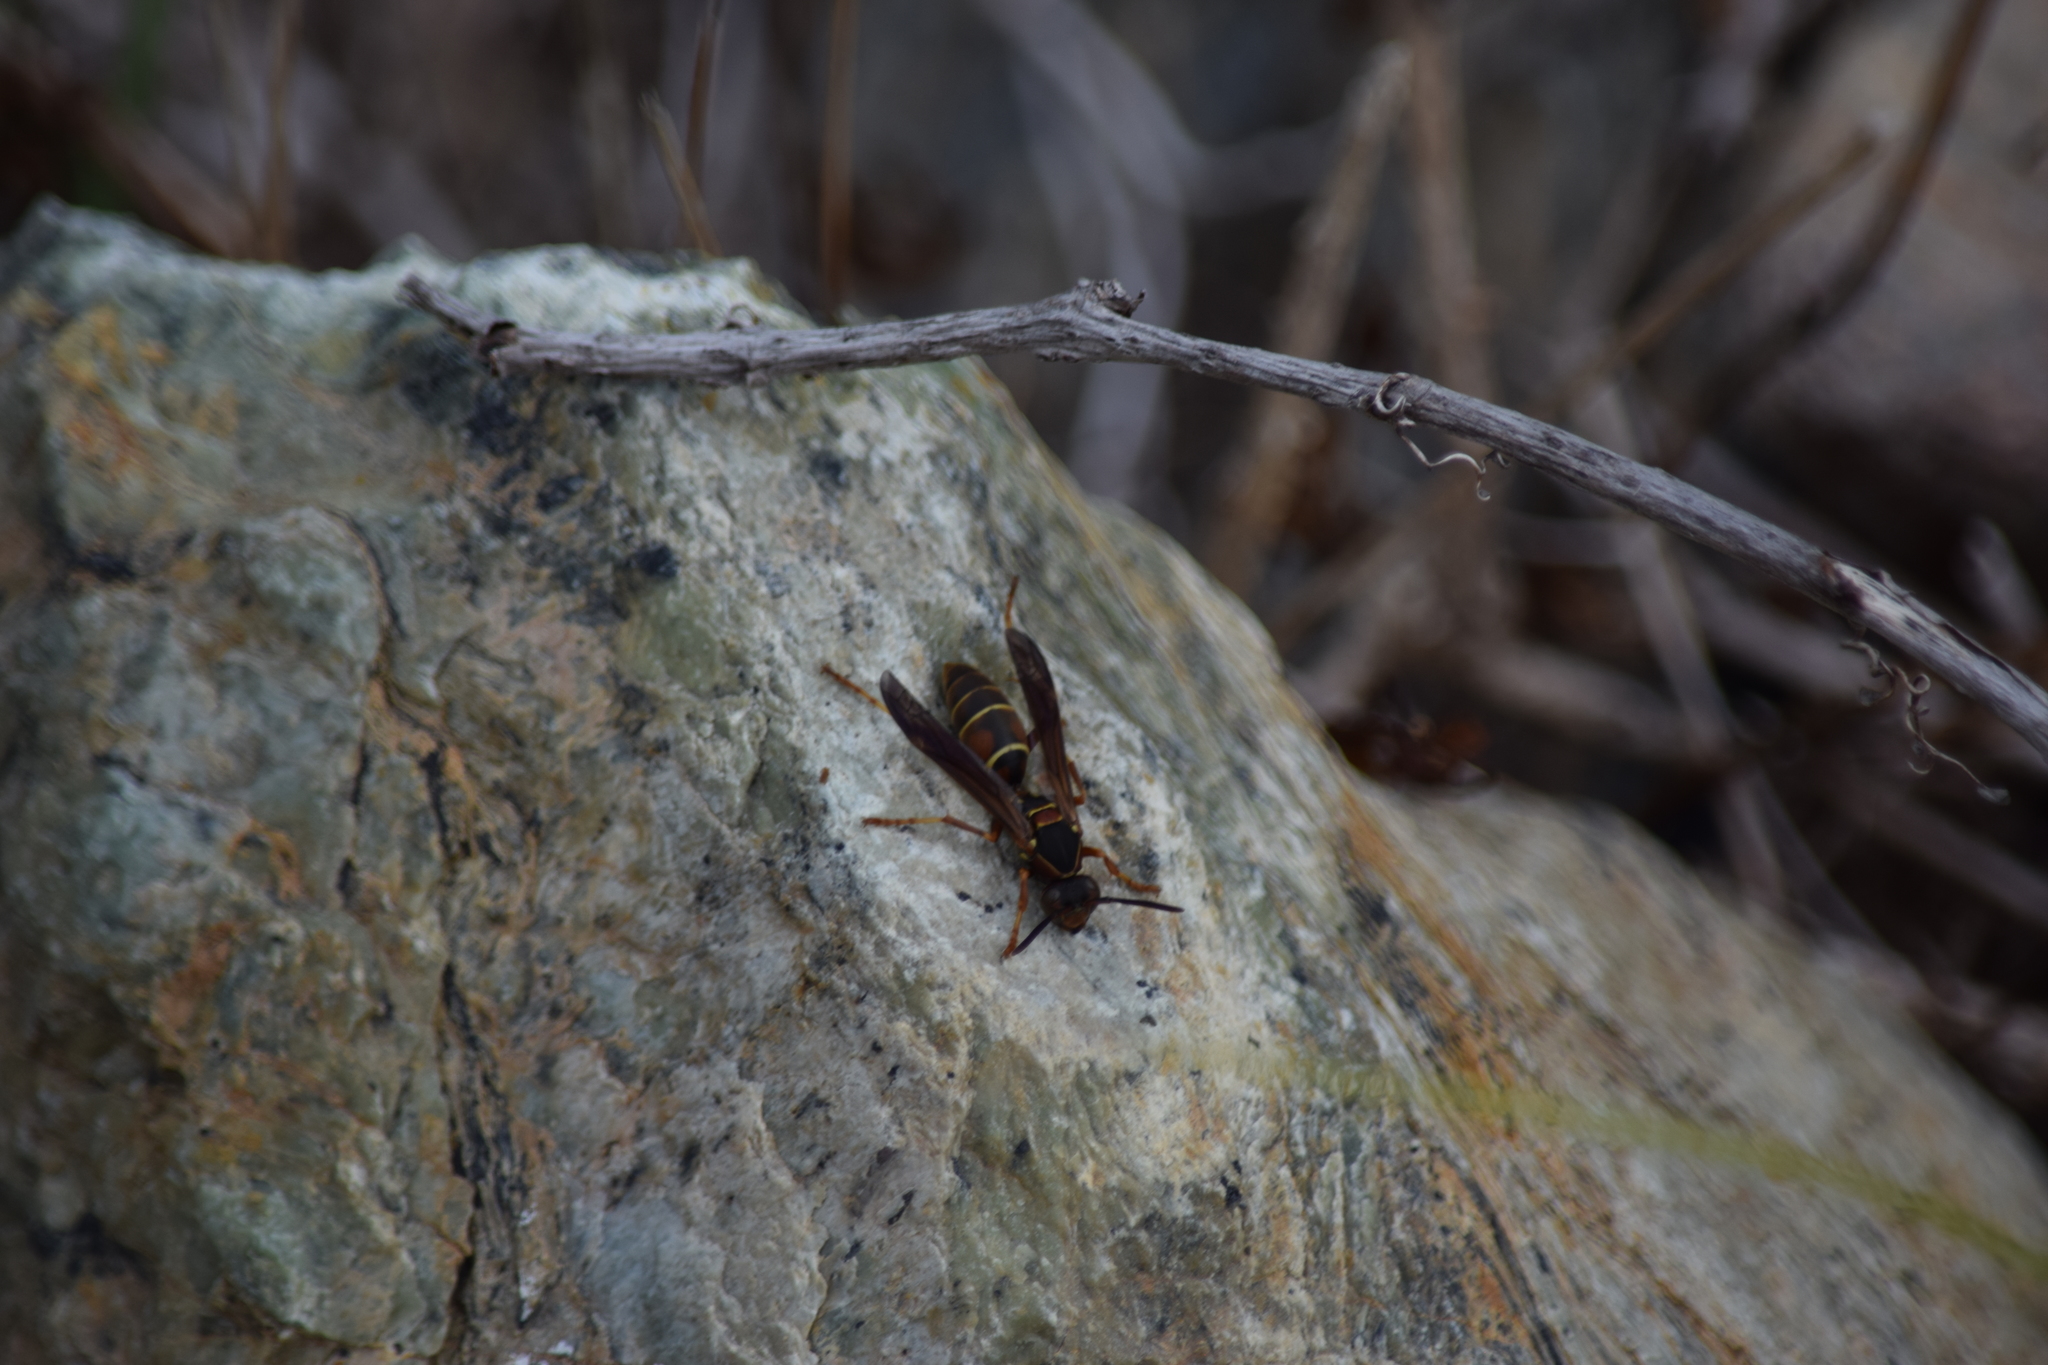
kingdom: Animalia
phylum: Arthropoda
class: Insecta
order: Hymenoptera
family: Eumenidae
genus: Polistes
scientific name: Polistes fuscatus
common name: Dark paper wasp
